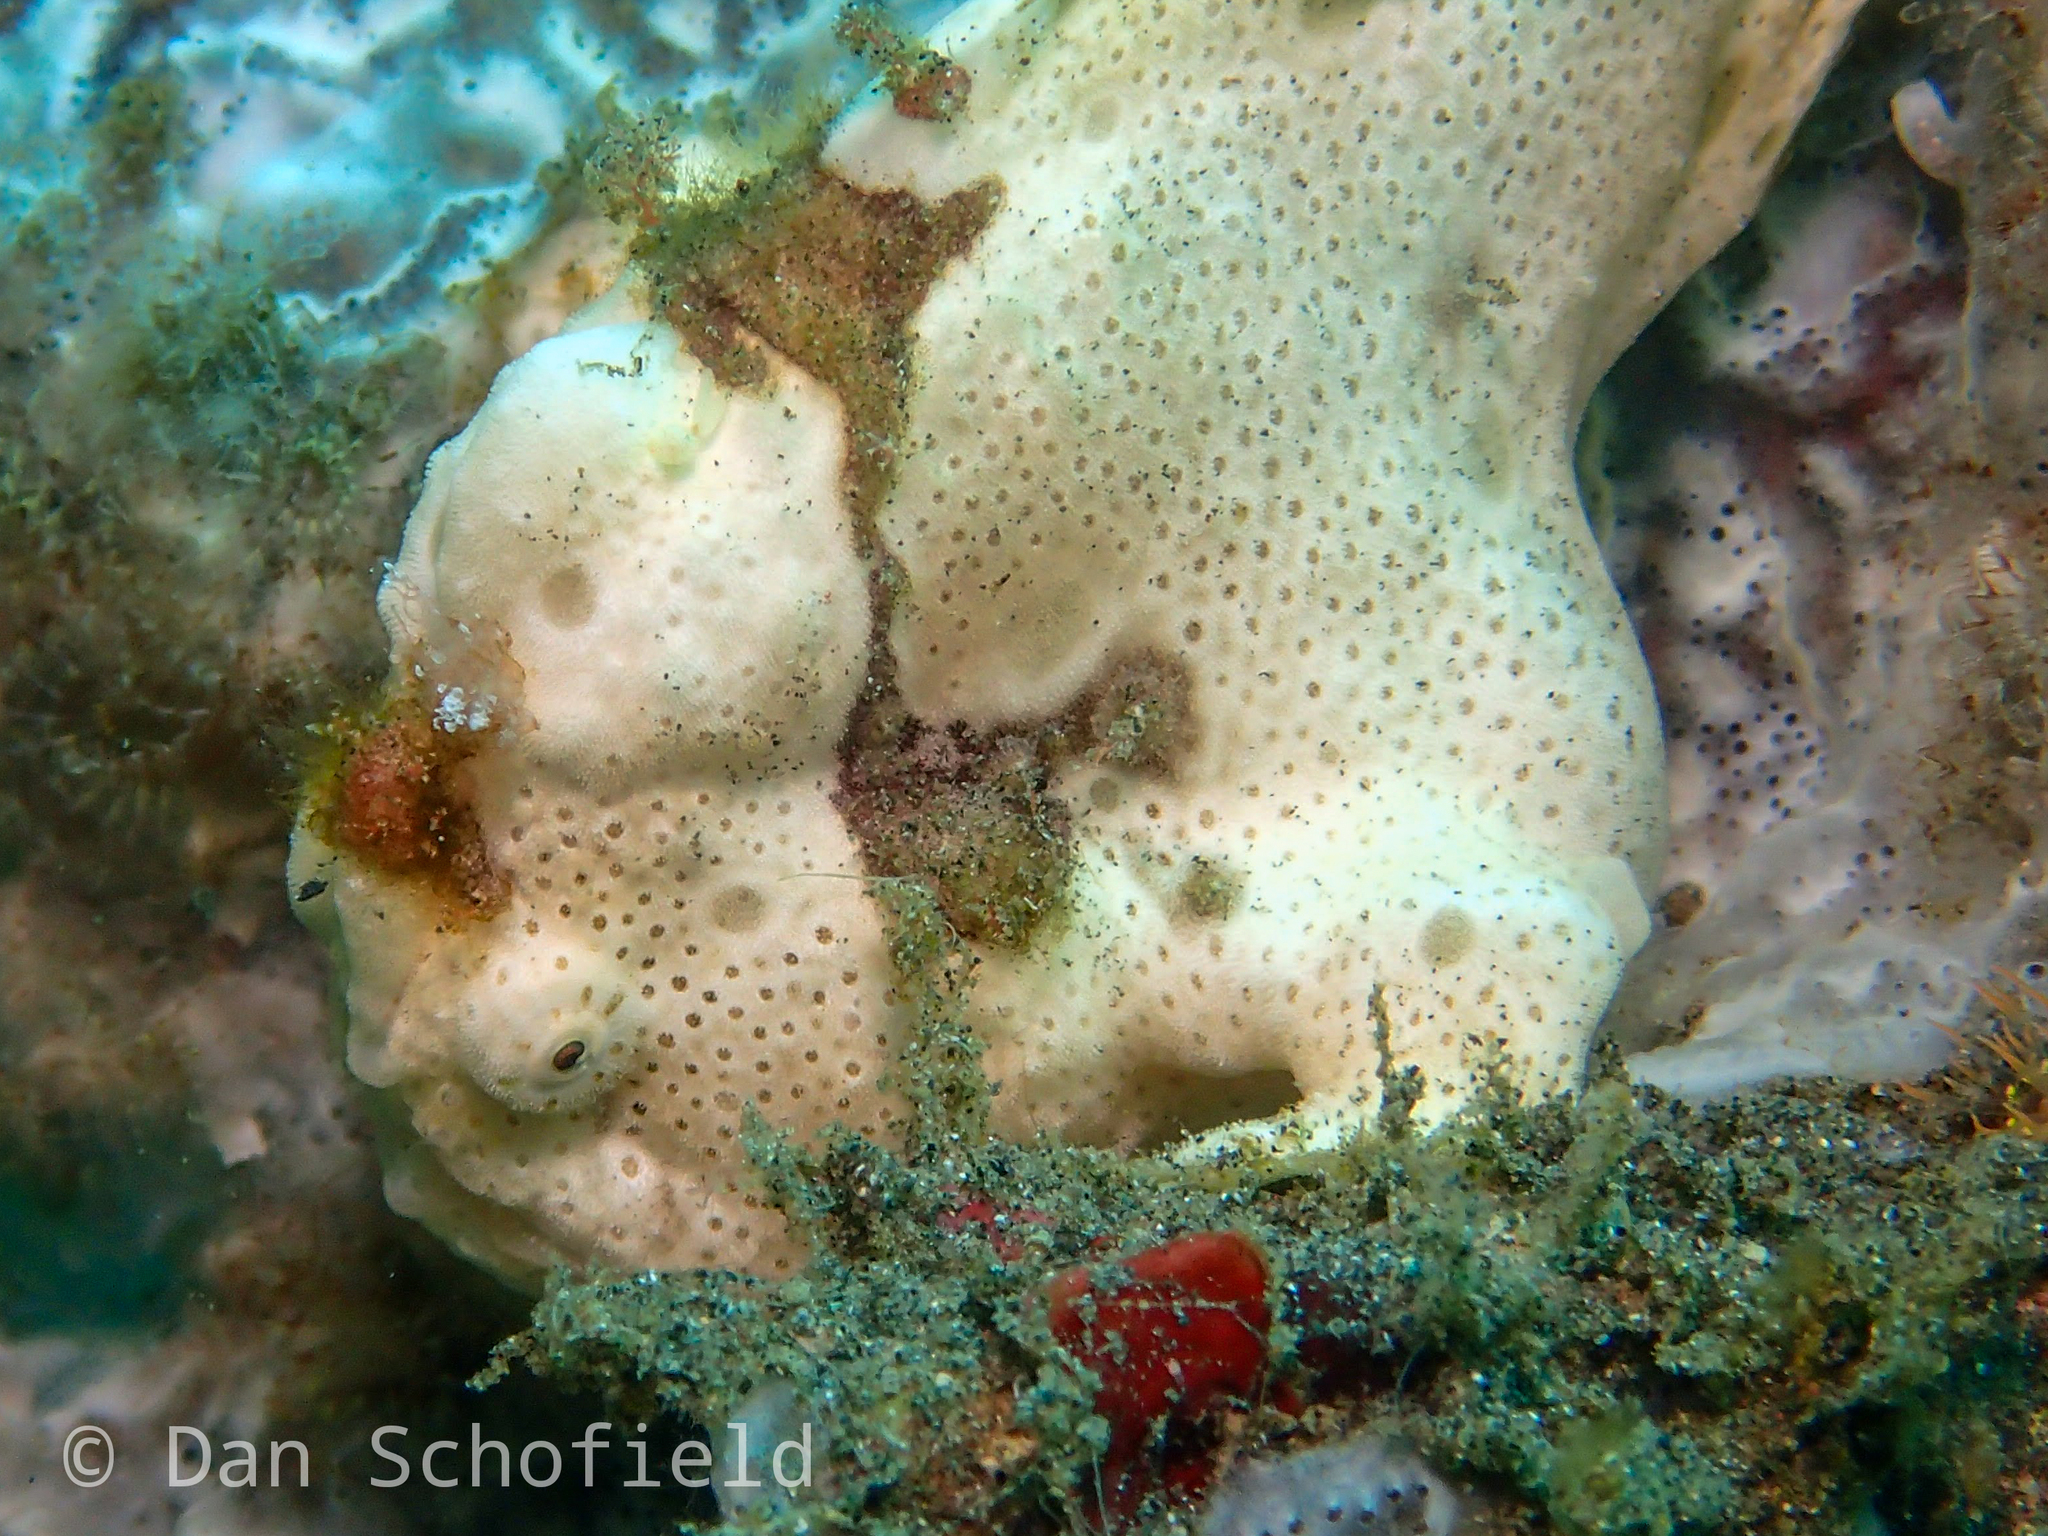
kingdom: Animalia
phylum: Chordata
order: Lophiiformes
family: Antennariidae
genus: Antennarius
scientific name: Antennarius pictus
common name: Painted frogfish
